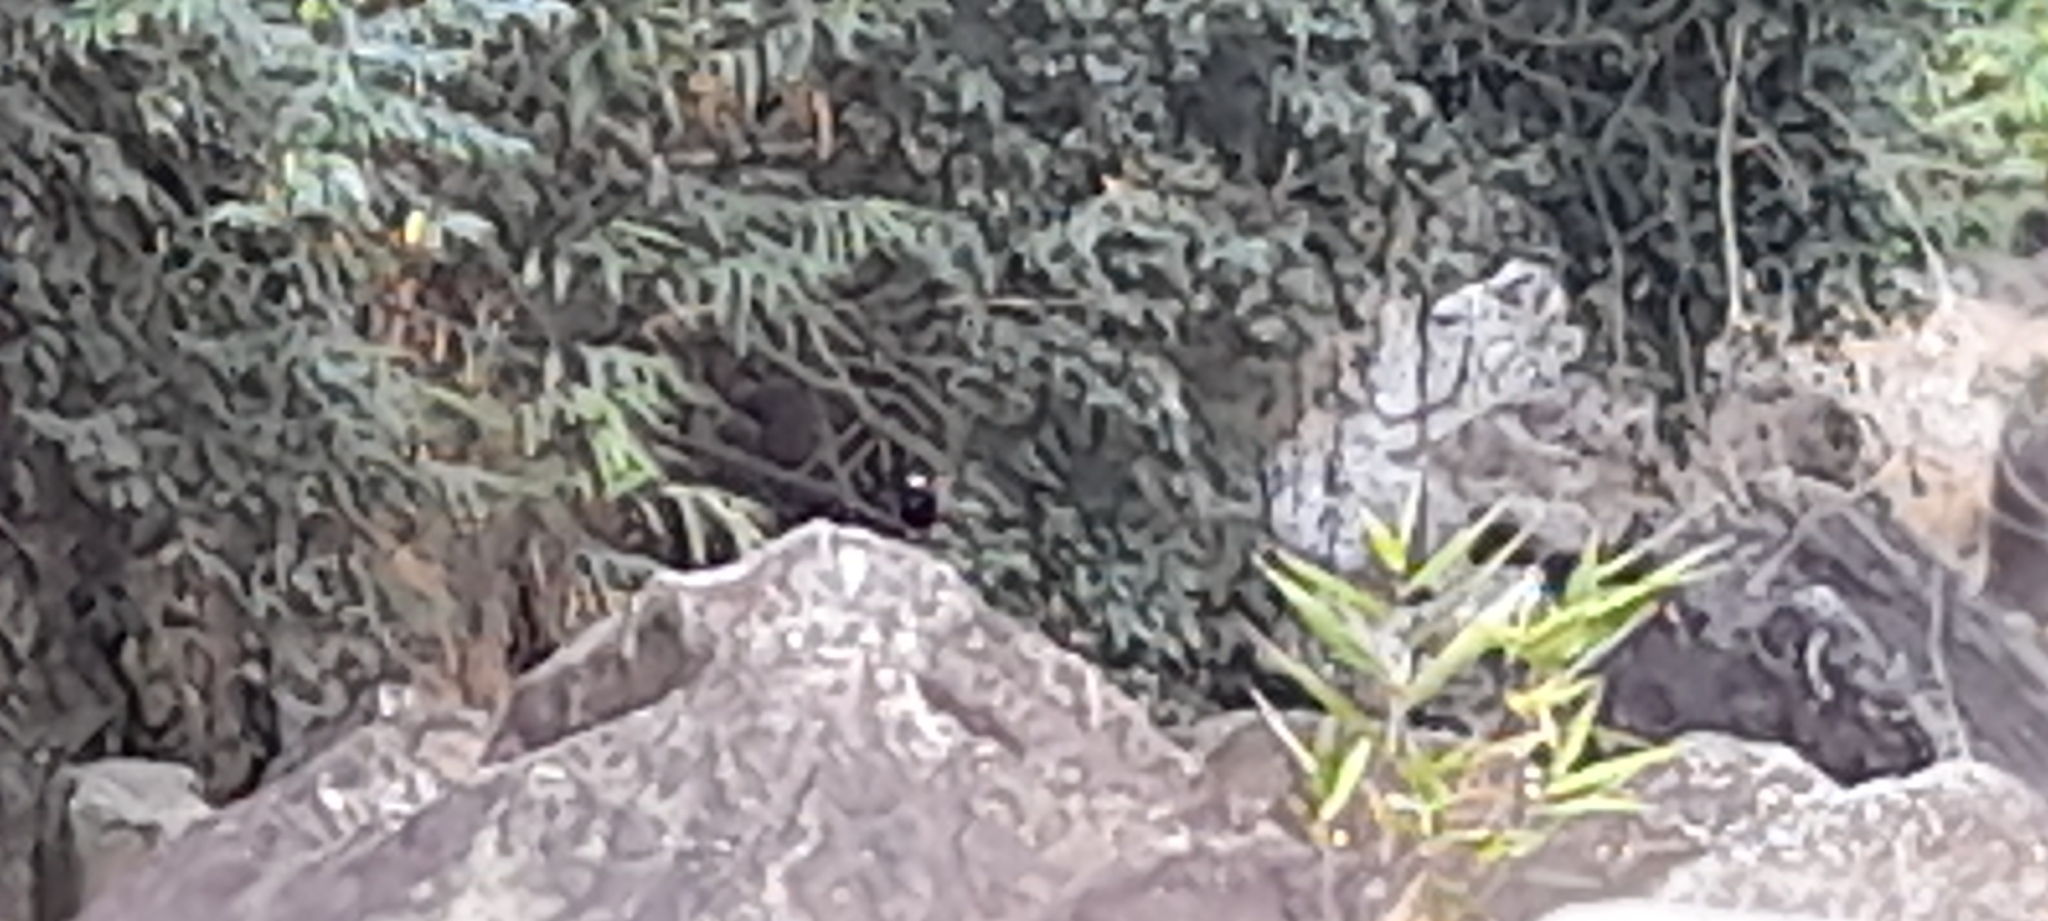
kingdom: Animalia
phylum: Chordata
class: Aves
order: Passeriformes
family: Muscicapidae
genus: Chaimarrornis
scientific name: Chaimarrornis leucocephalus
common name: White-capped redstart
